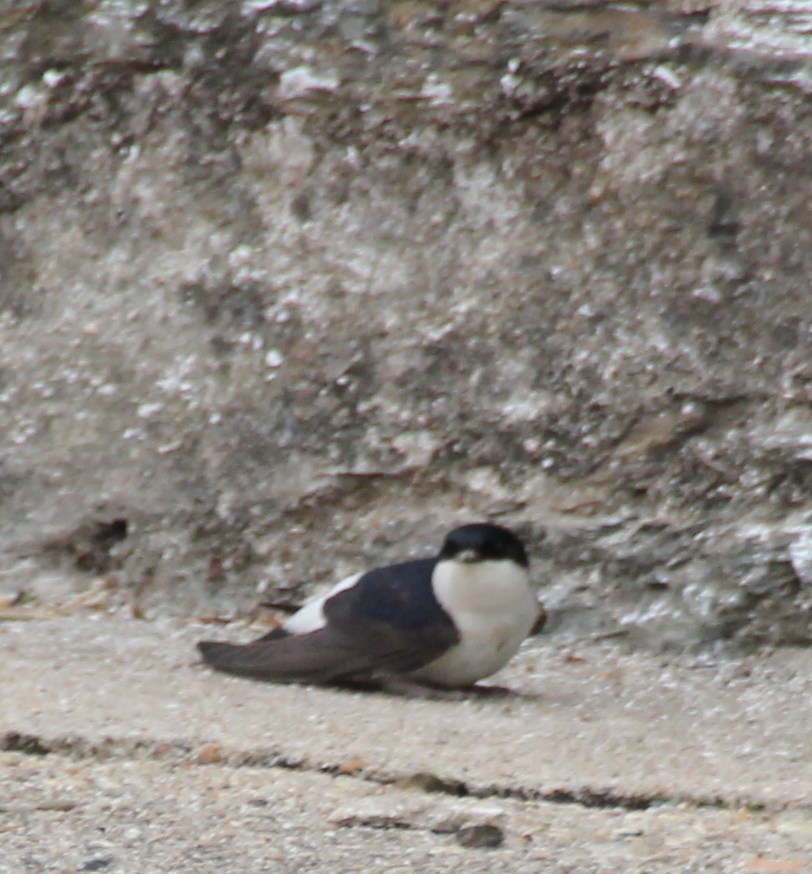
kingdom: Animalia
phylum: Chordata
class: Aves
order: Passeriformes
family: Hirundinidae
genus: Delichon
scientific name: Delichon urbicum
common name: Common house martin
